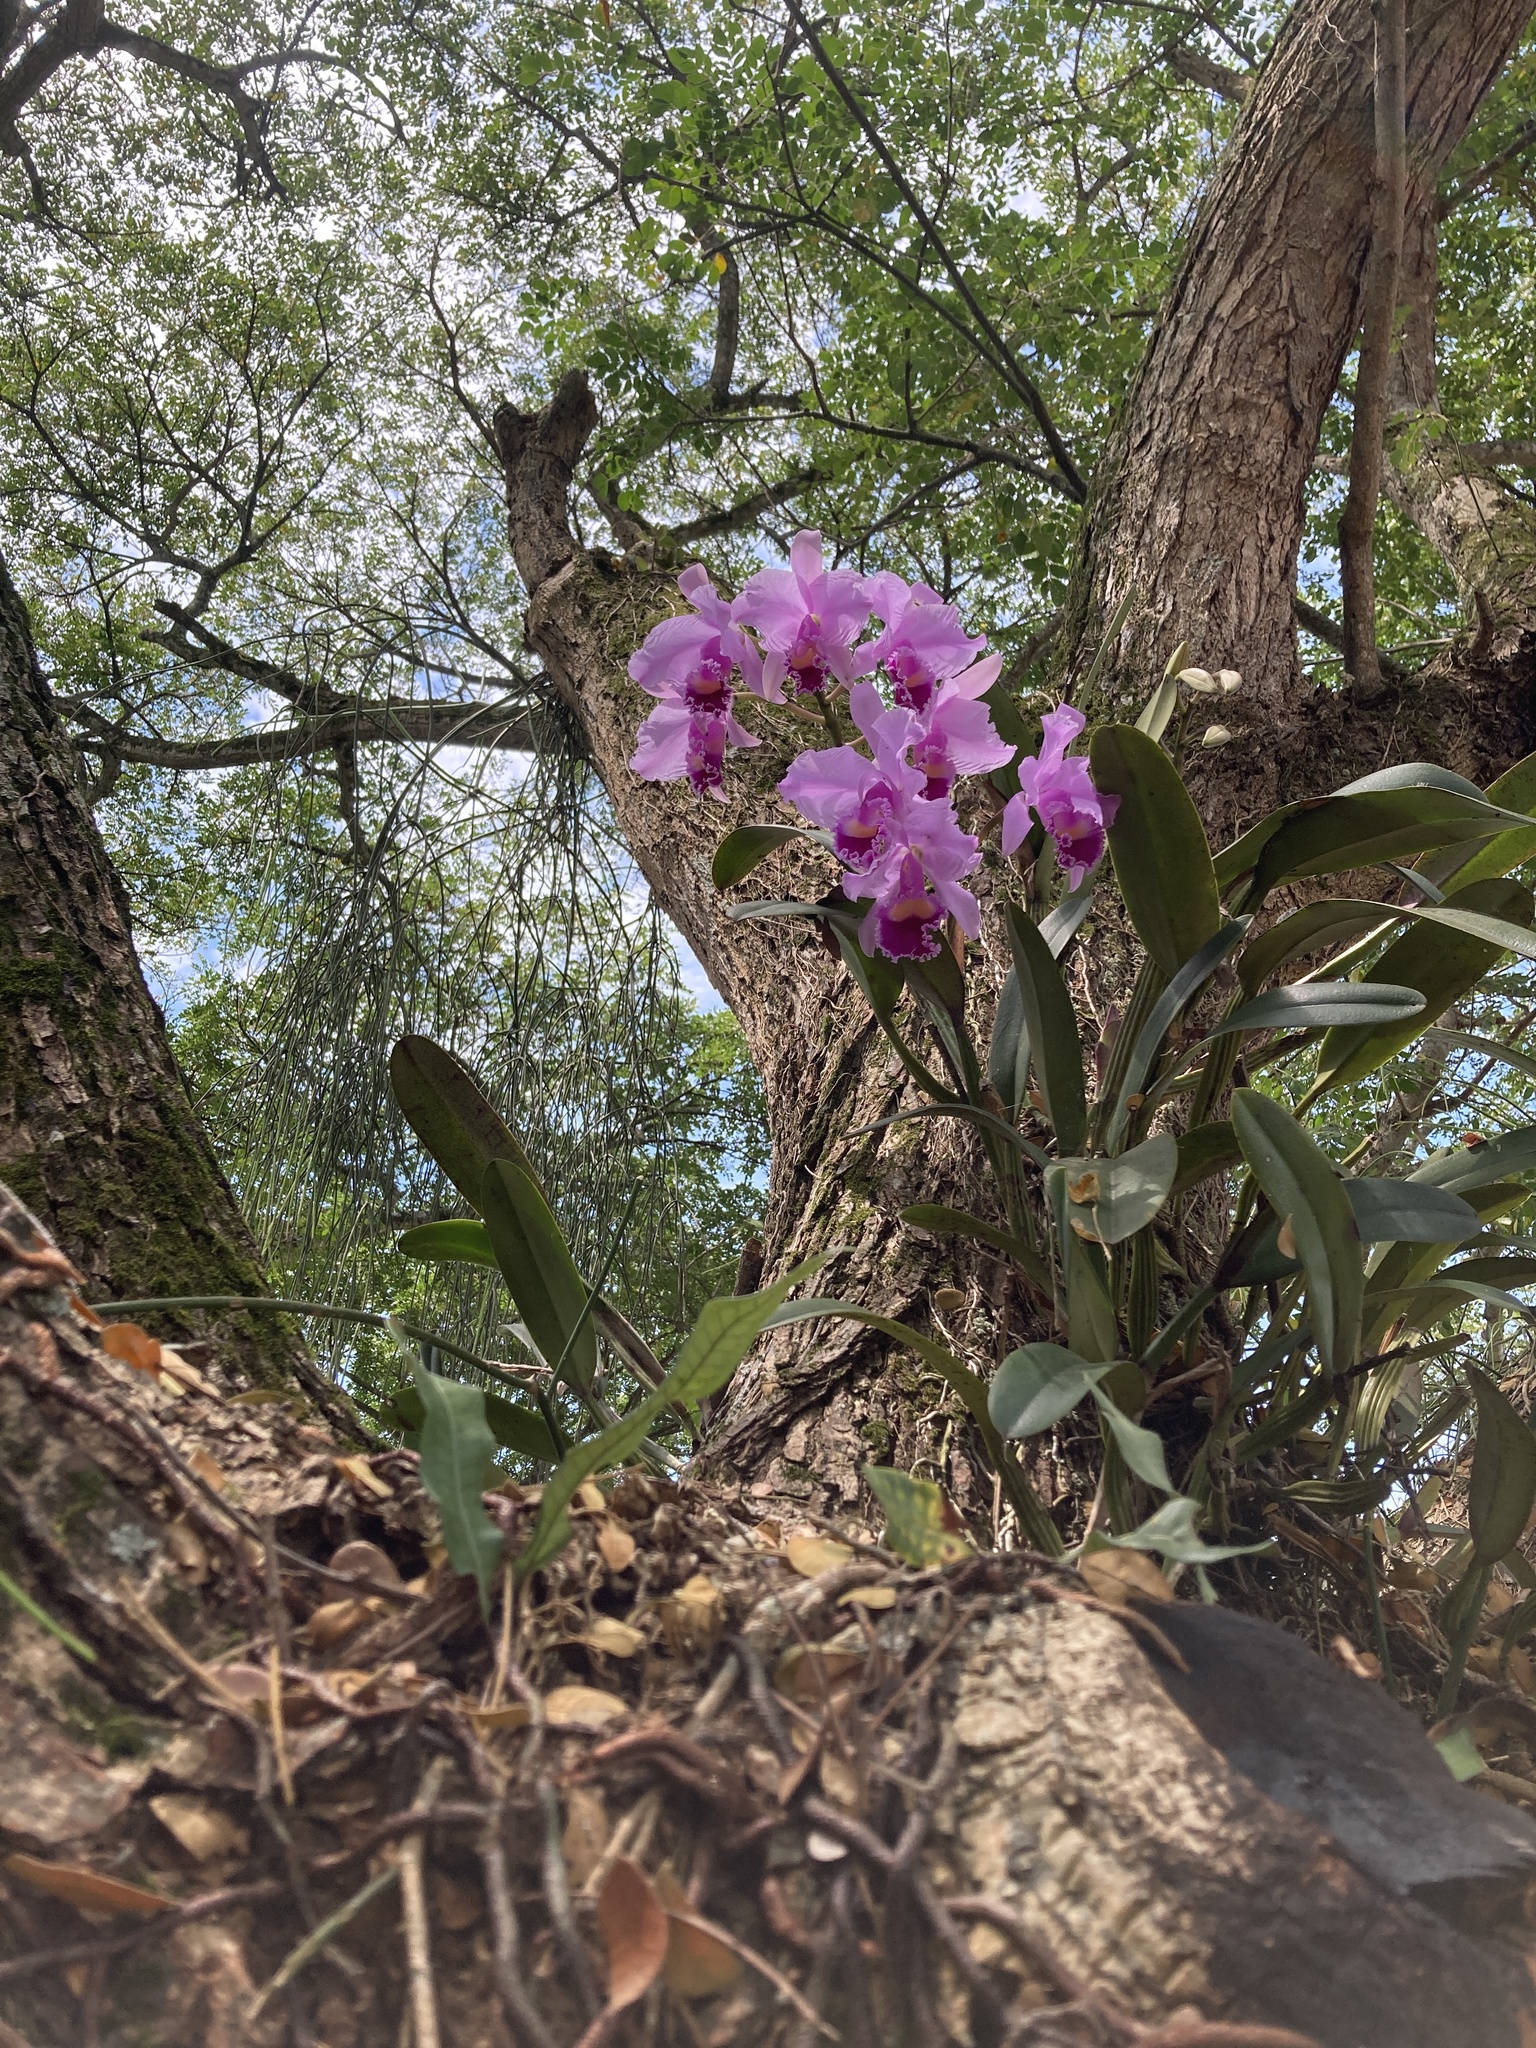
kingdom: Plantae
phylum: Tracheophyta
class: Liliopsida
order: Asparagales
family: Orchidaceae
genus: Cattleya
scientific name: Cattleya trianae
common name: Christmas orchid
